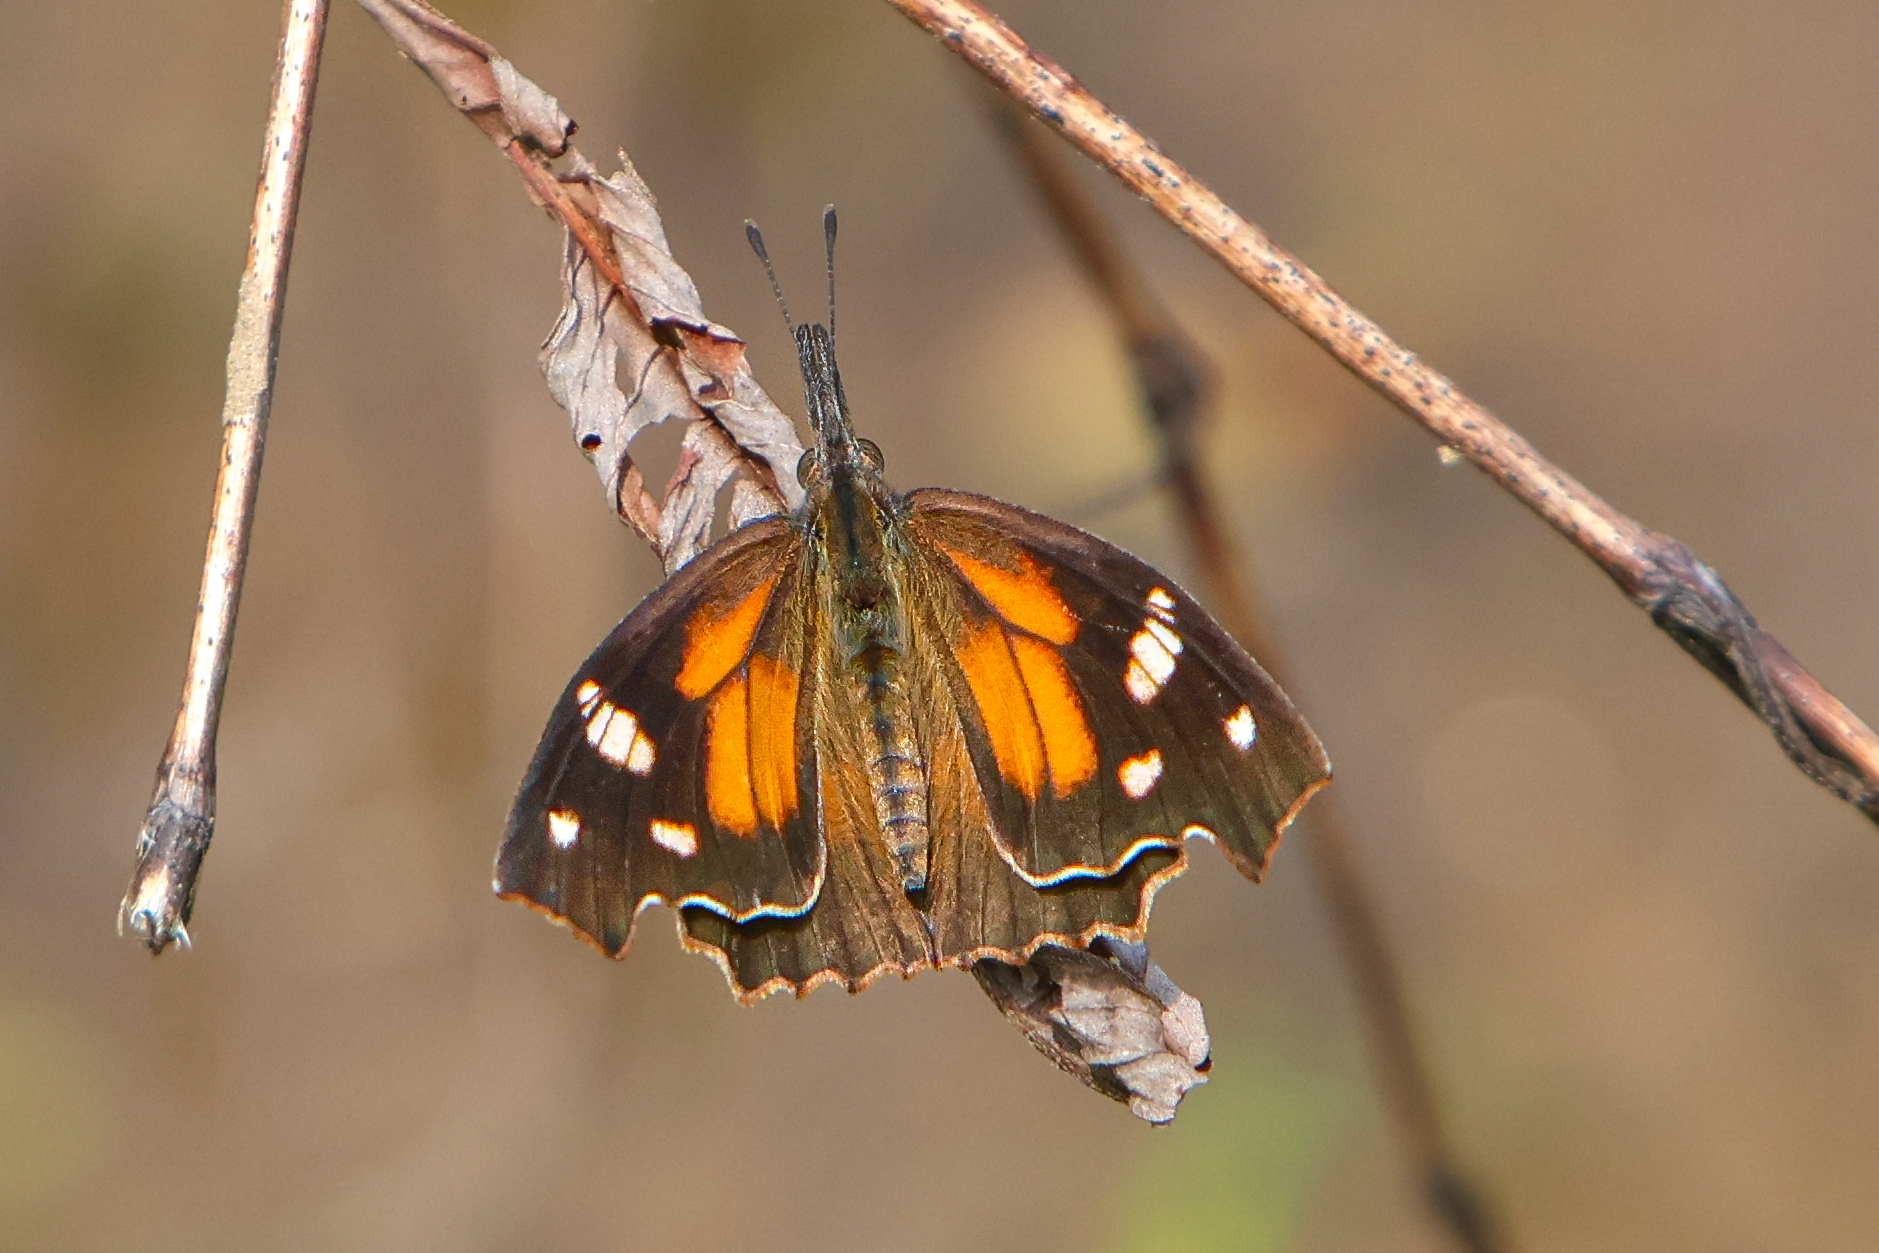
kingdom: Animalia
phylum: Arthropoda
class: Insecta
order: Lepidoptera
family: Nymphalidae
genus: Libytheana
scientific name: Libytheana carinenta
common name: American snout
